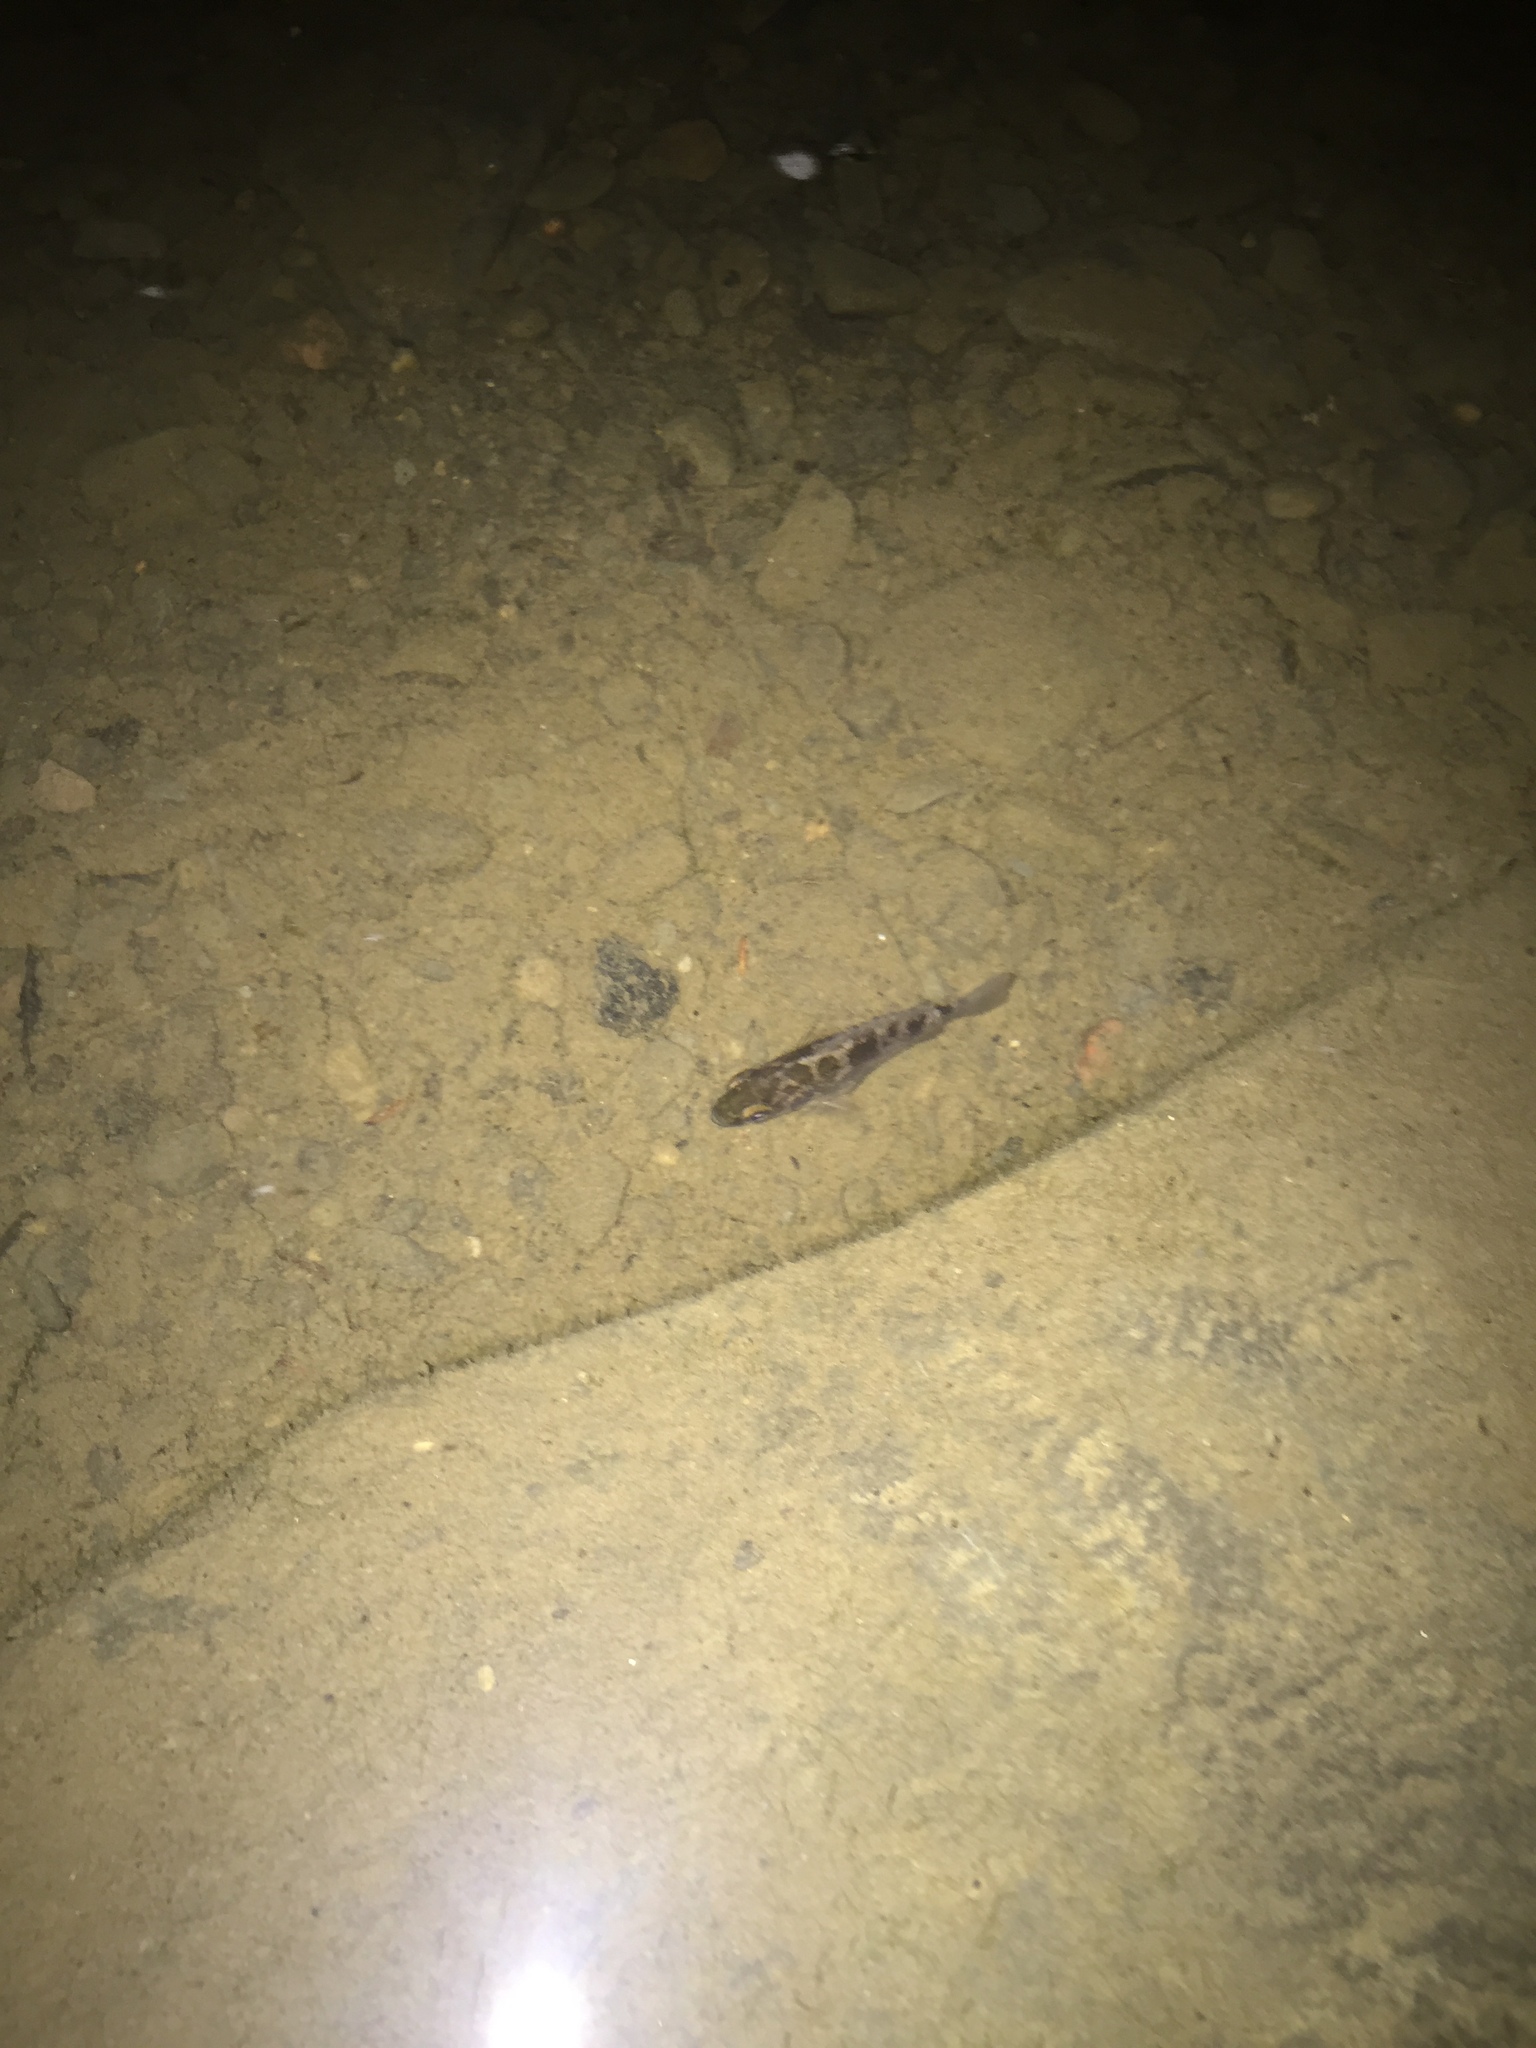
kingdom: Animalia
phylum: Chordata
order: Perciformes
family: Centrarchidae
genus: Ambloplites
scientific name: Ambloplites rupestris
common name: Rock bass
